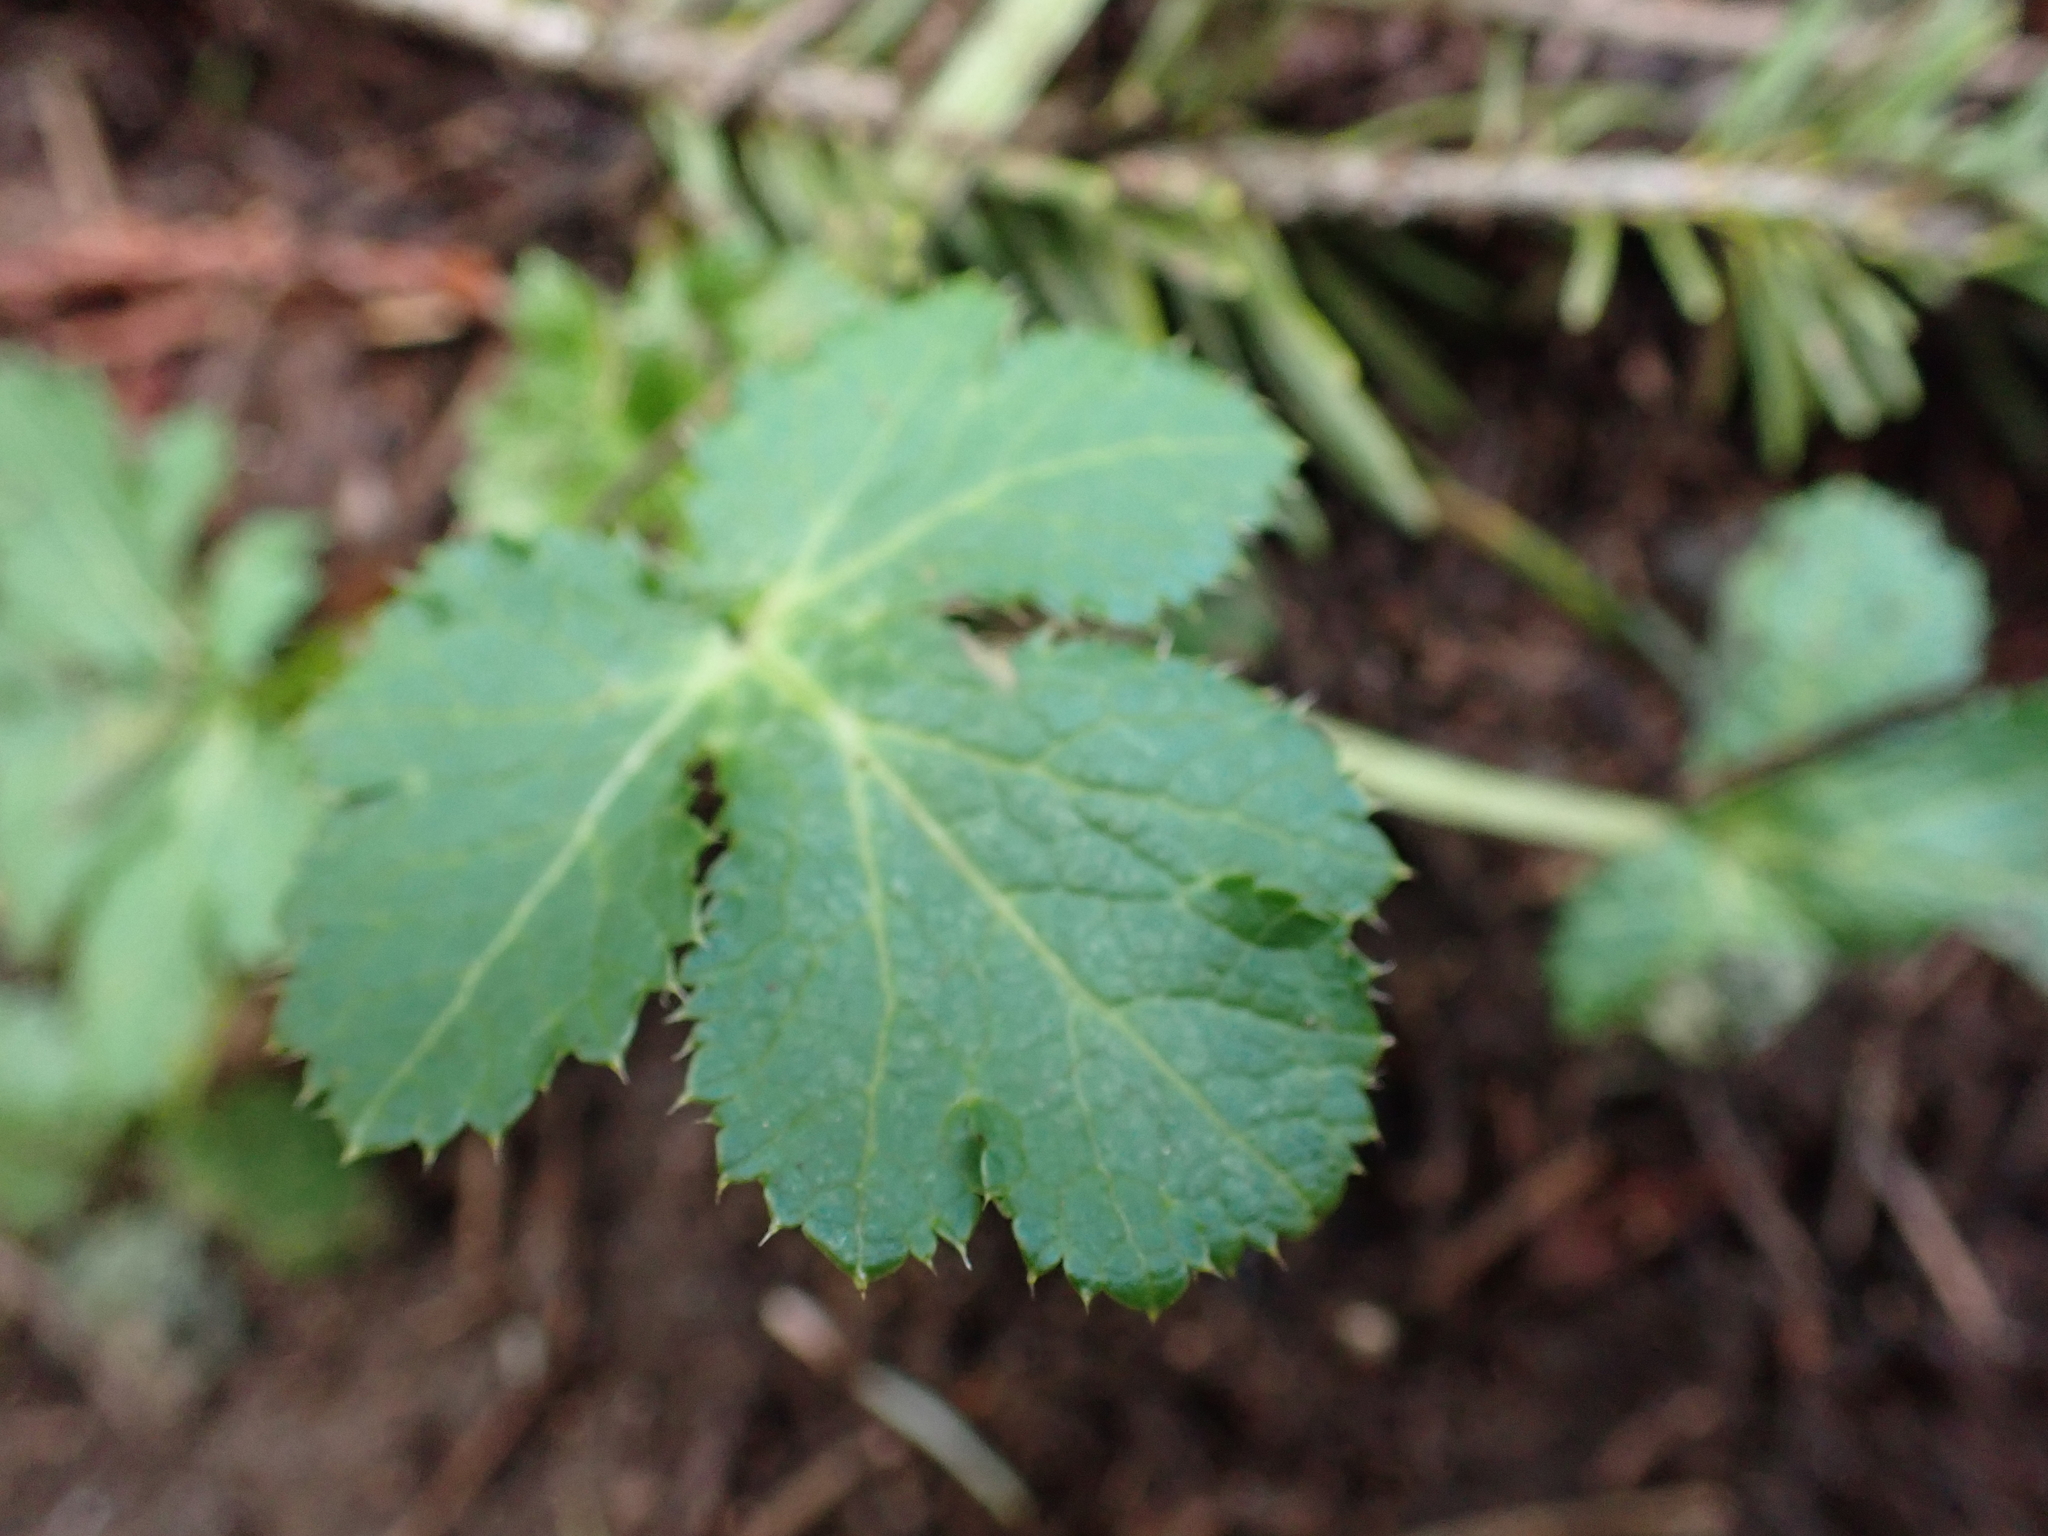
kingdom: Plantae
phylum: Tracheophyta
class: Magnoliopsida
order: Apiales
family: Apiaceae
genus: Sanicula
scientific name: Sanicula crassicaulis
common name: Western snakeroot
